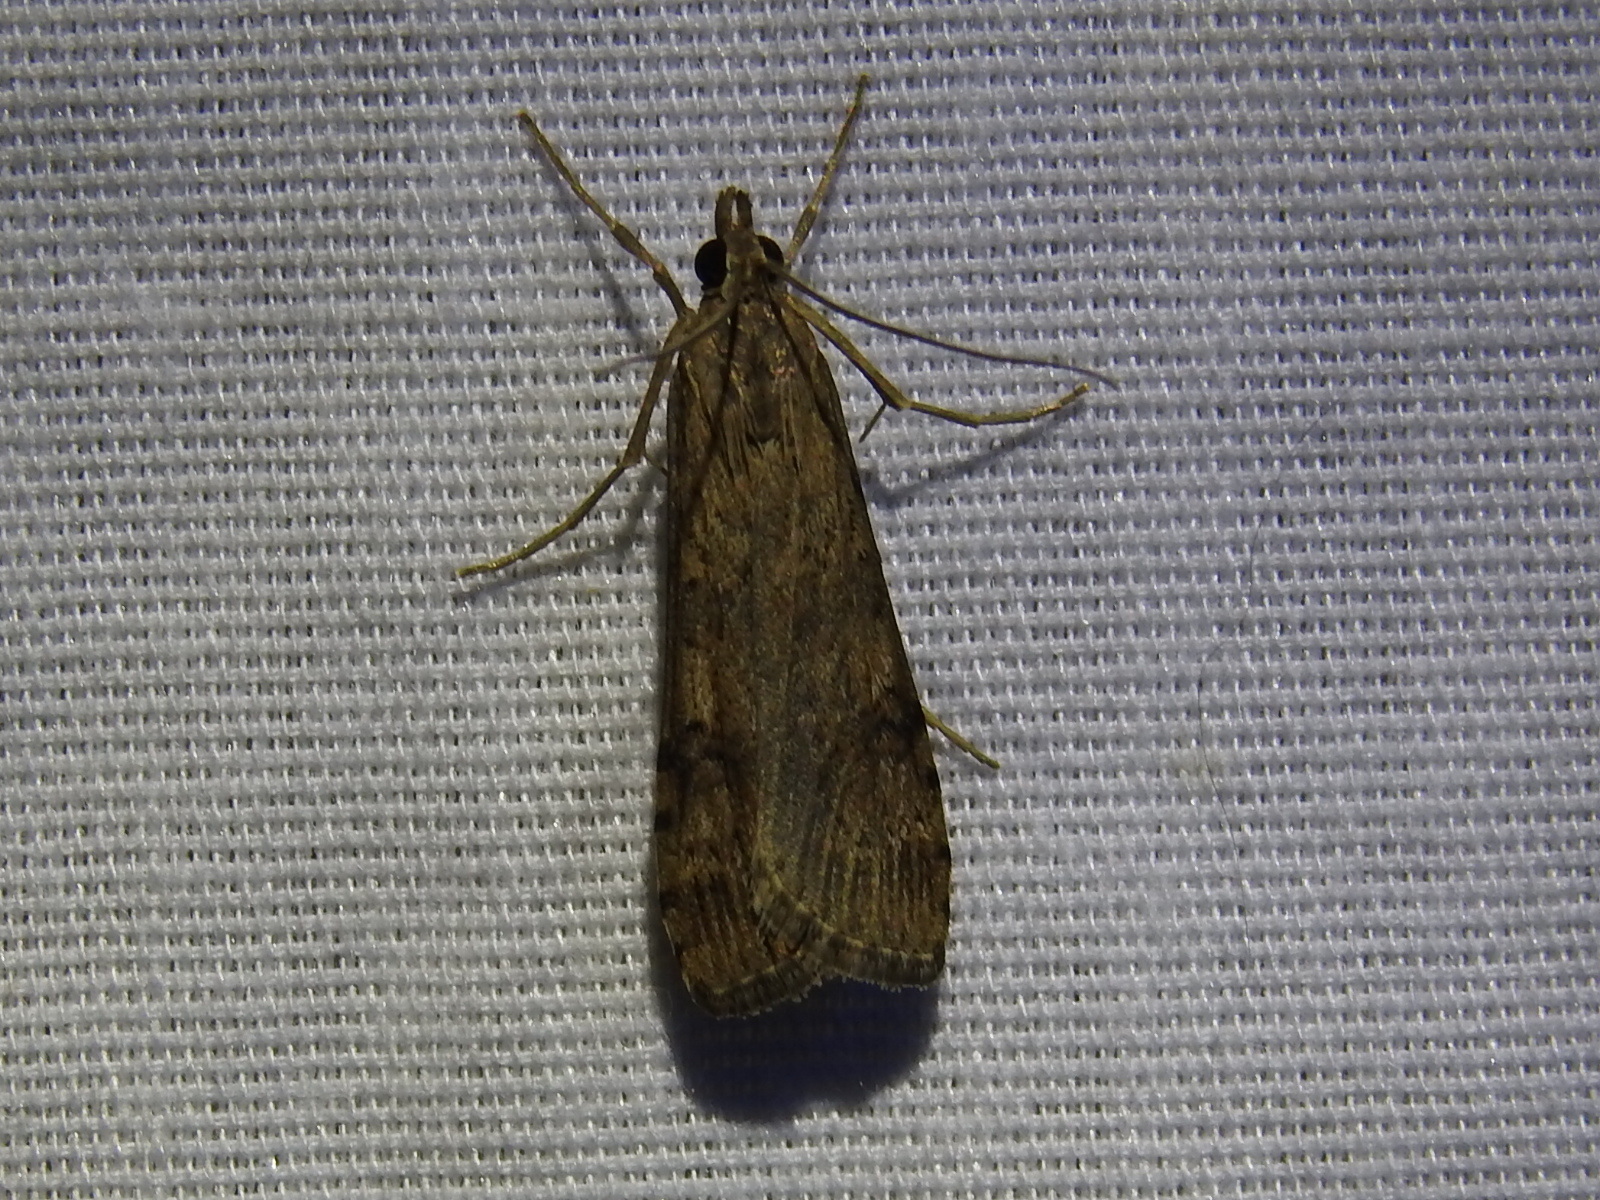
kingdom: Animalia
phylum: Arthropoda
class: Insecta
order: Lepidoptera
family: Crambidae
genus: Nomophila
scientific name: Nomophila nearctica
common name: American rush veneer
